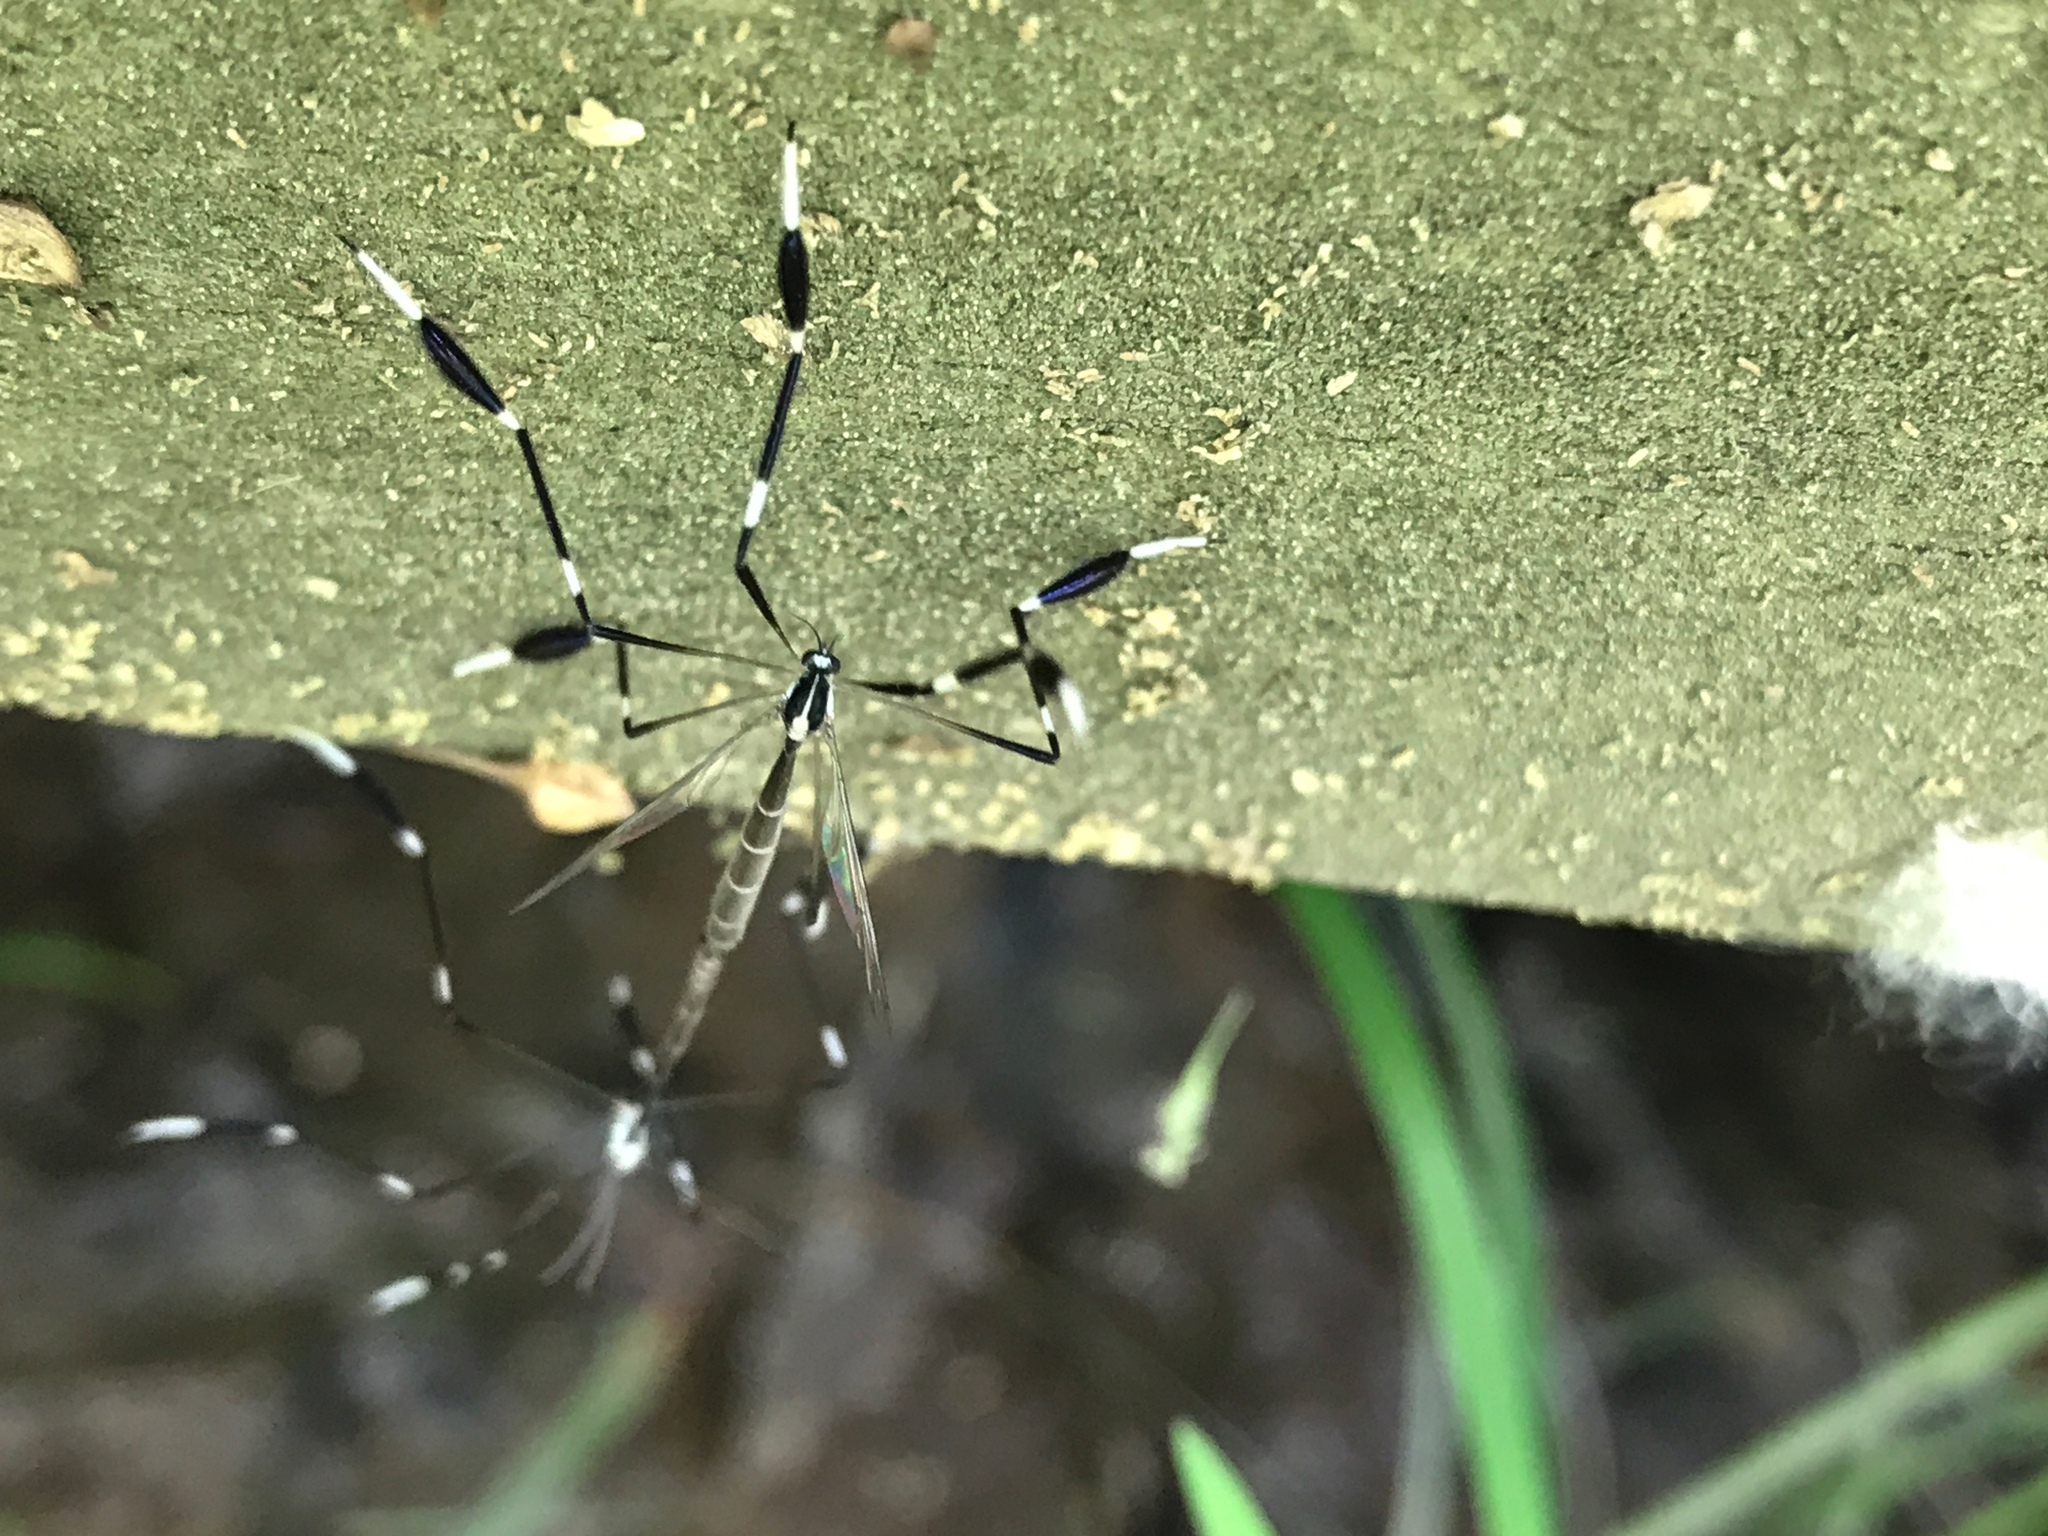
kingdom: Animalia
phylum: Arthropoda
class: Insecta
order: Diptera
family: Ptychopteridae
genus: Bittacomorpha
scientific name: Bittacomorpha clavipes
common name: Eastern phantom crane fly
